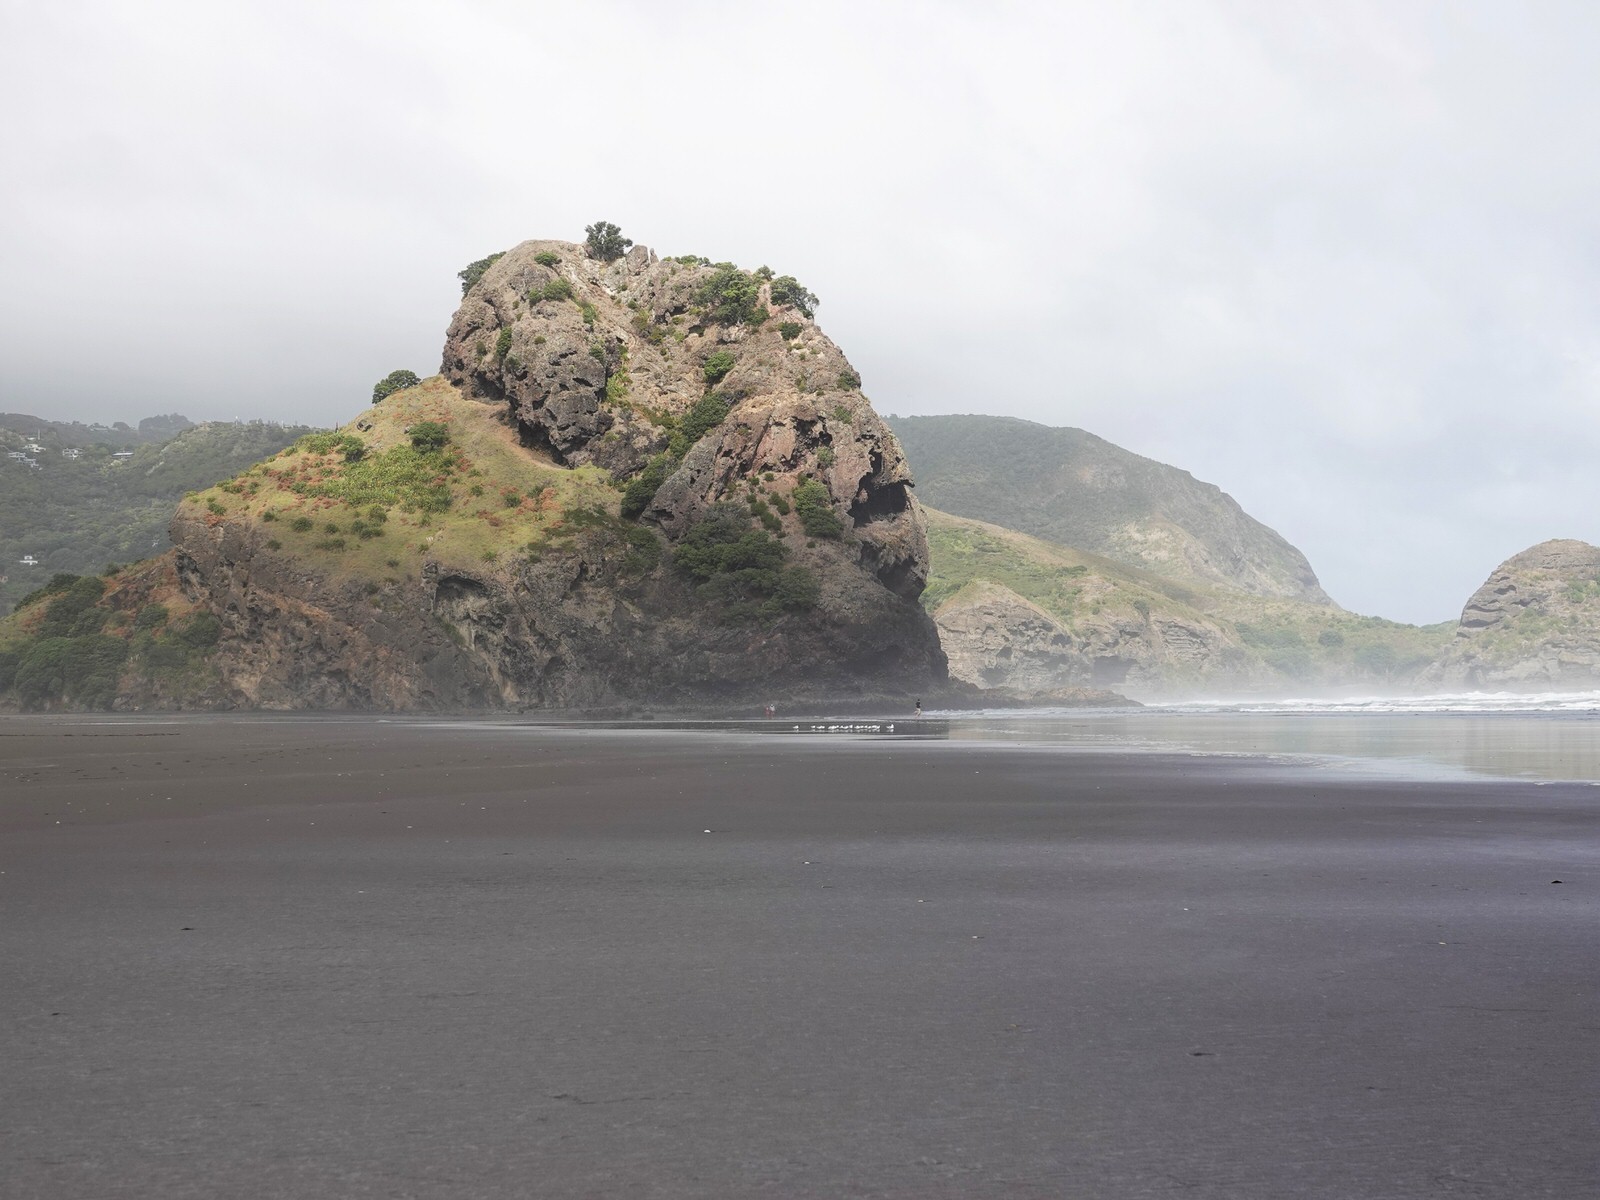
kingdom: Animalia
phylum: Chordata
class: Aves
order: Charadriiformes
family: Laridae
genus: Sterna
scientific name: Sterna striata
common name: White-fronted tern
